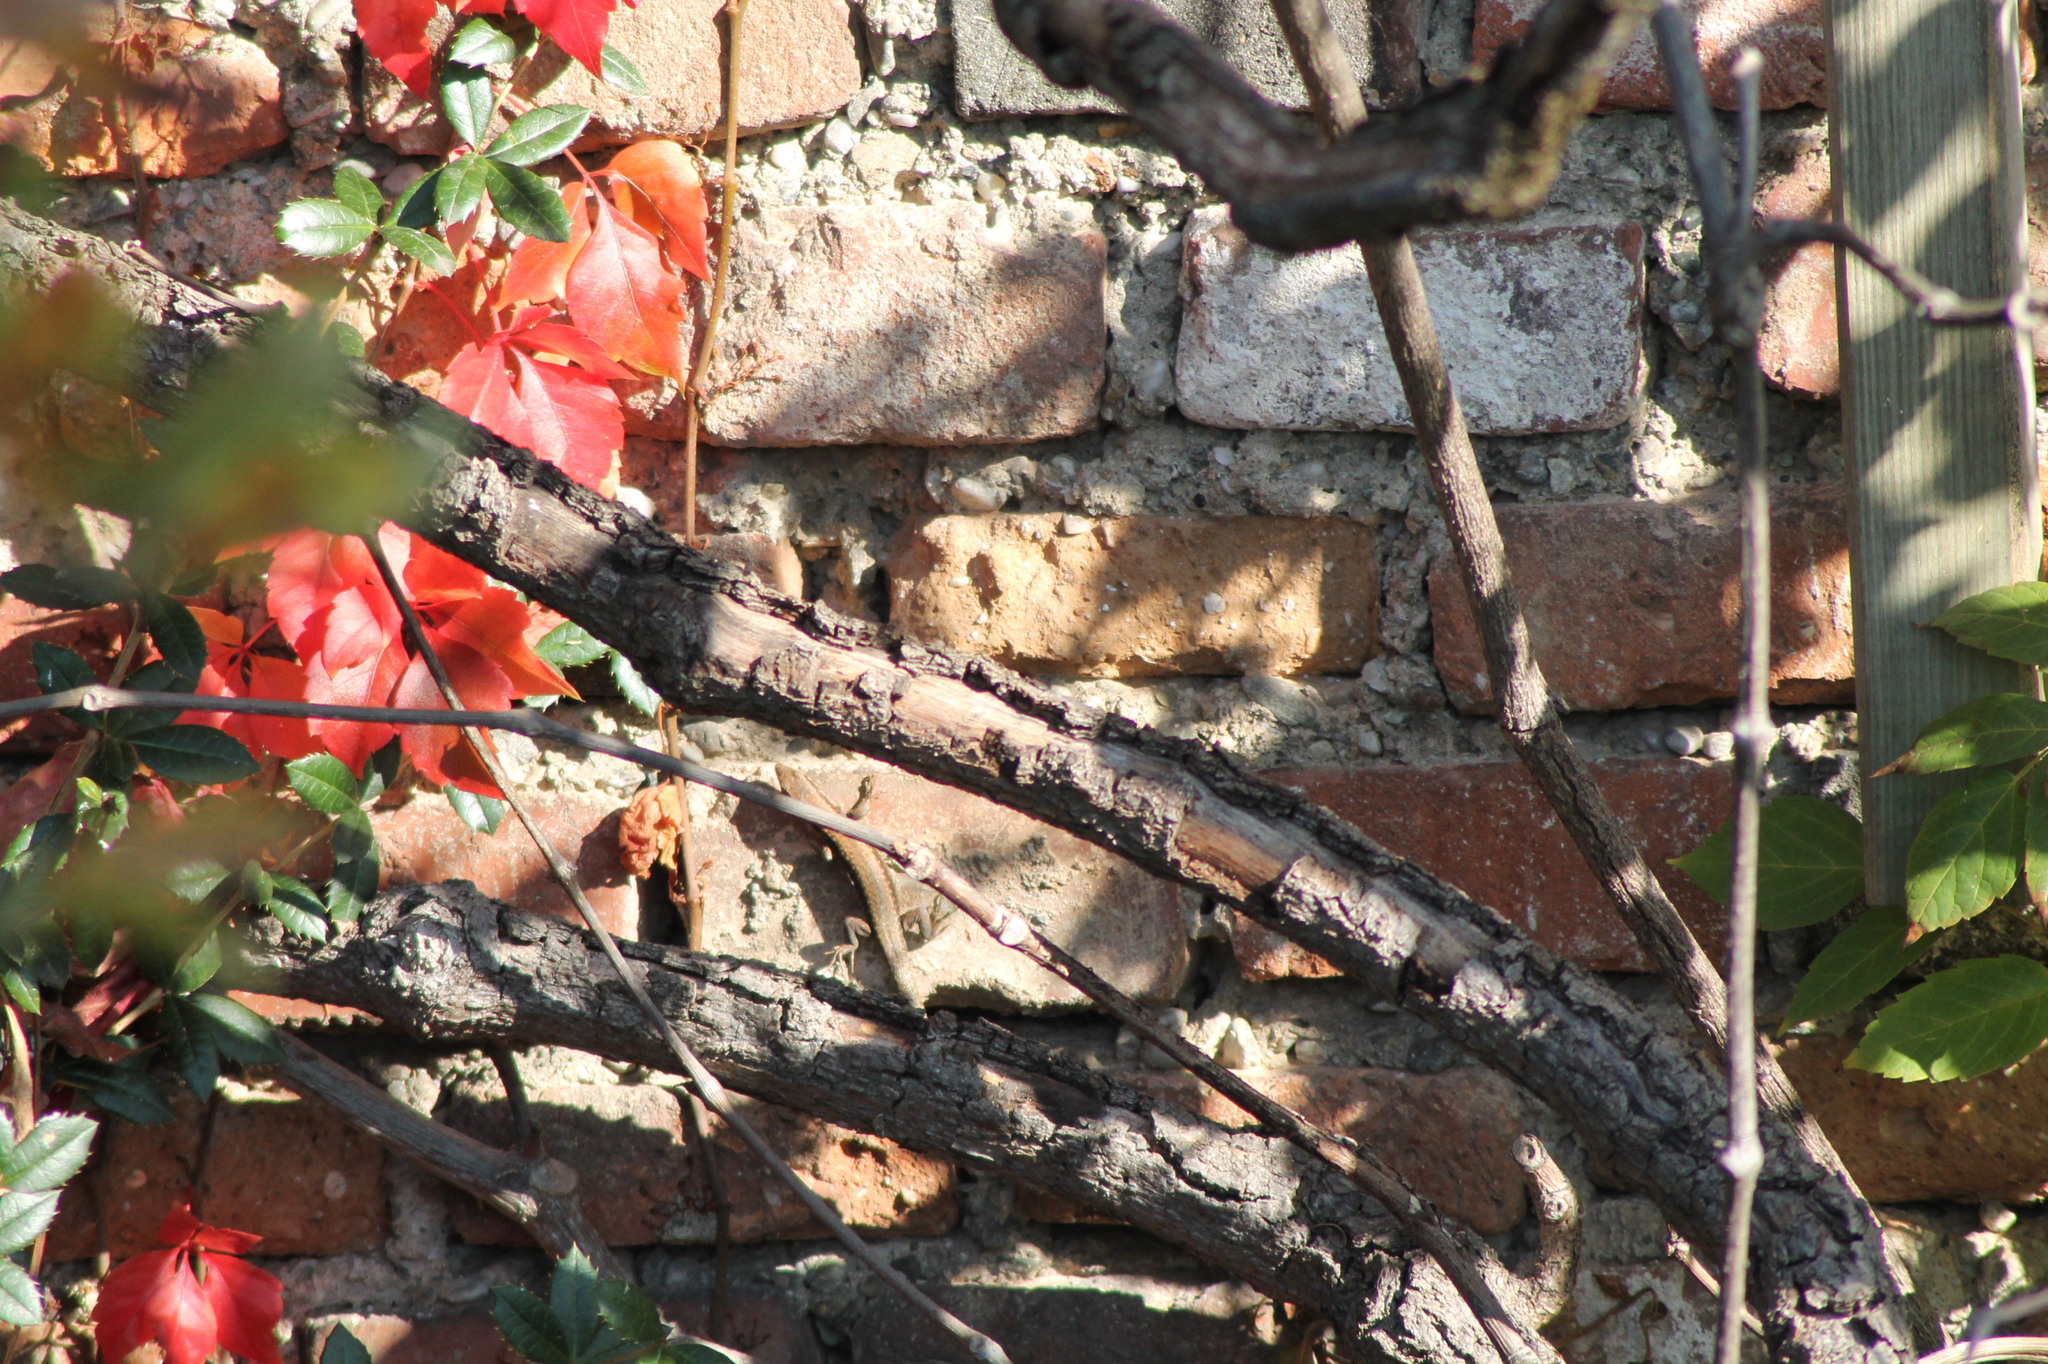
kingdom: Animalia
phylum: Chordata
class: Squamata
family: Lacertidae
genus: Podarcis
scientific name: Podarcis muralis
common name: Common wall lizard
